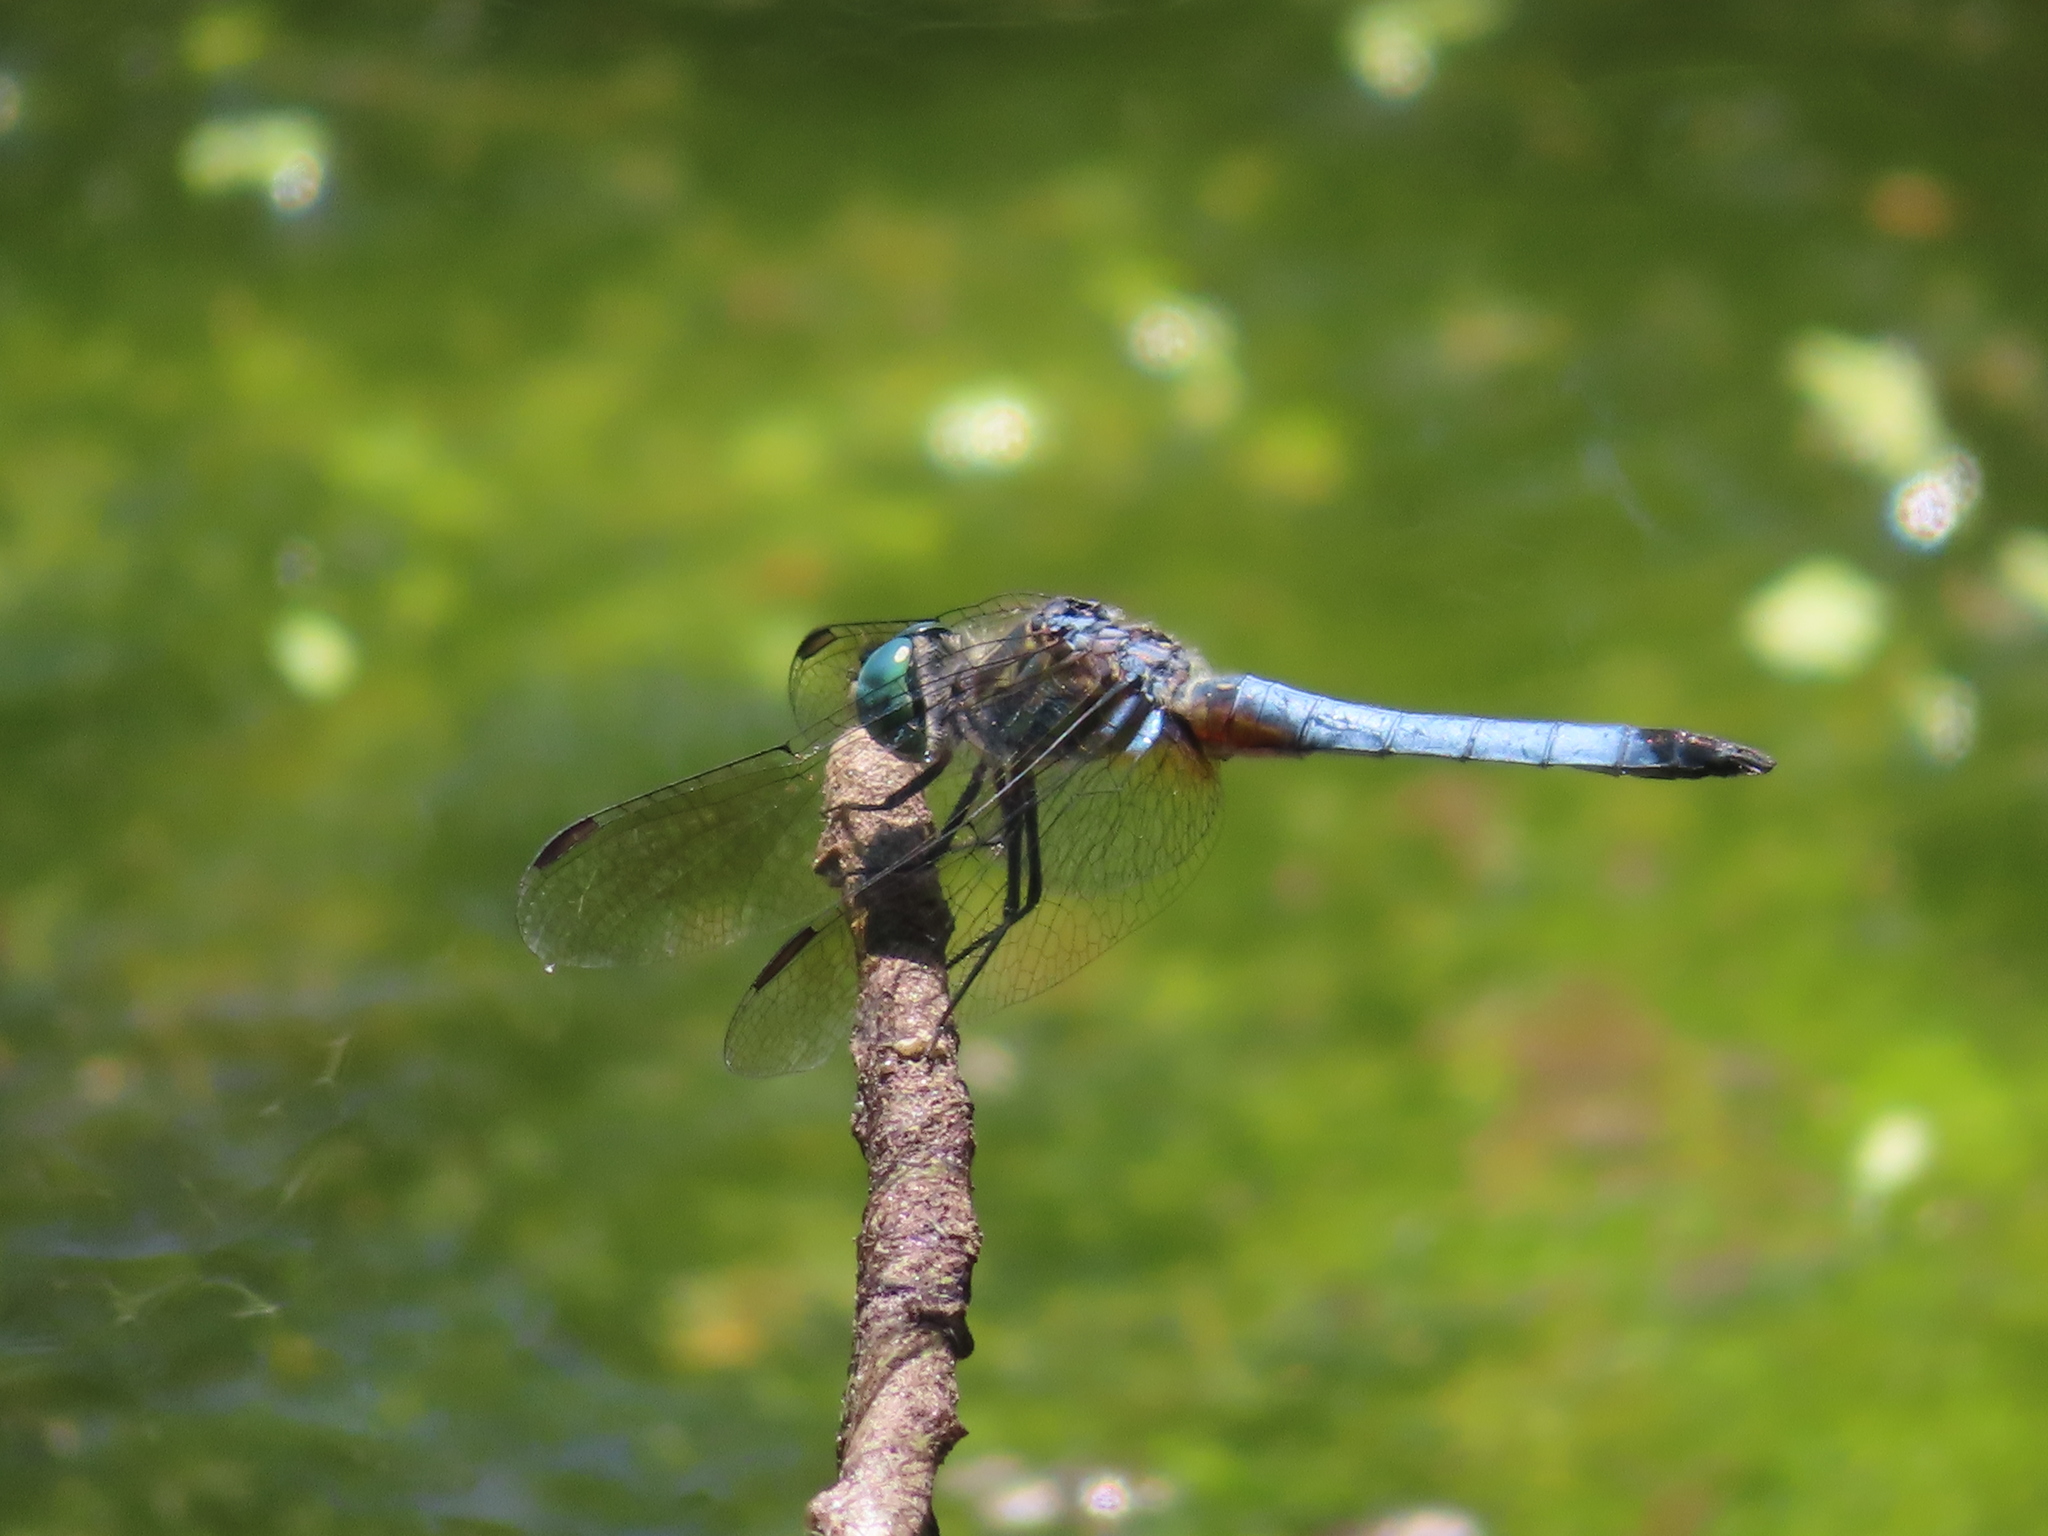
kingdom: Animalia
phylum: Arthropoda
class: Insecta
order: Odonata
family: Libellulidae
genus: Pachydiplax
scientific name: Pachydiplax longipennis
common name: Blue dasher
